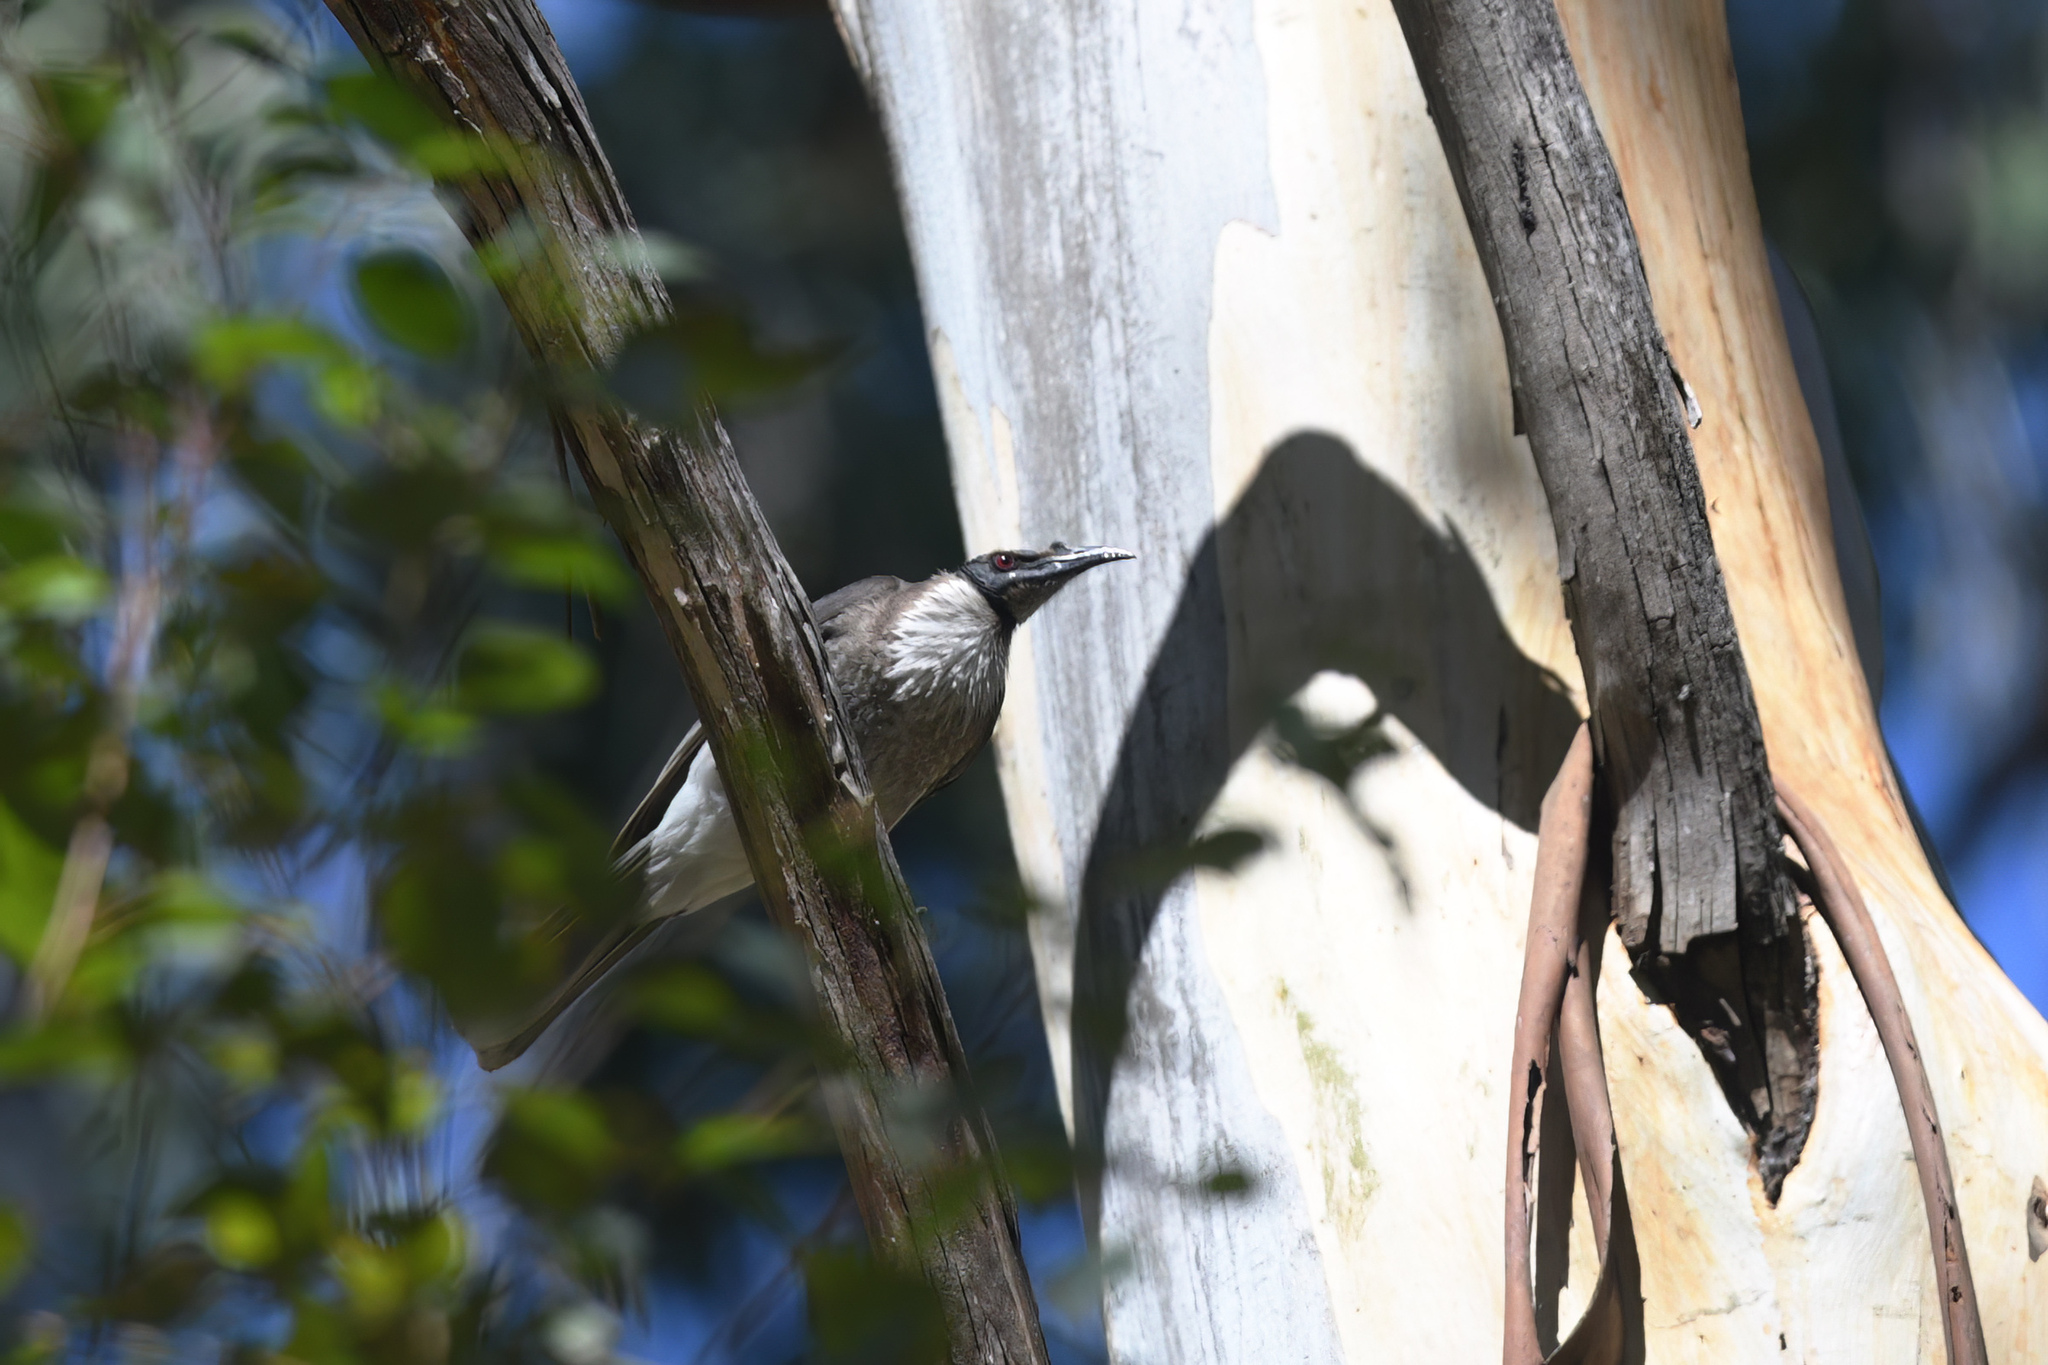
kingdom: Animalia
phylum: Chordata
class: Aves
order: Passeriformes
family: Meliphagidae
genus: Philemon
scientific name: Philemon corniculatus
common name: Noisy friarbird
